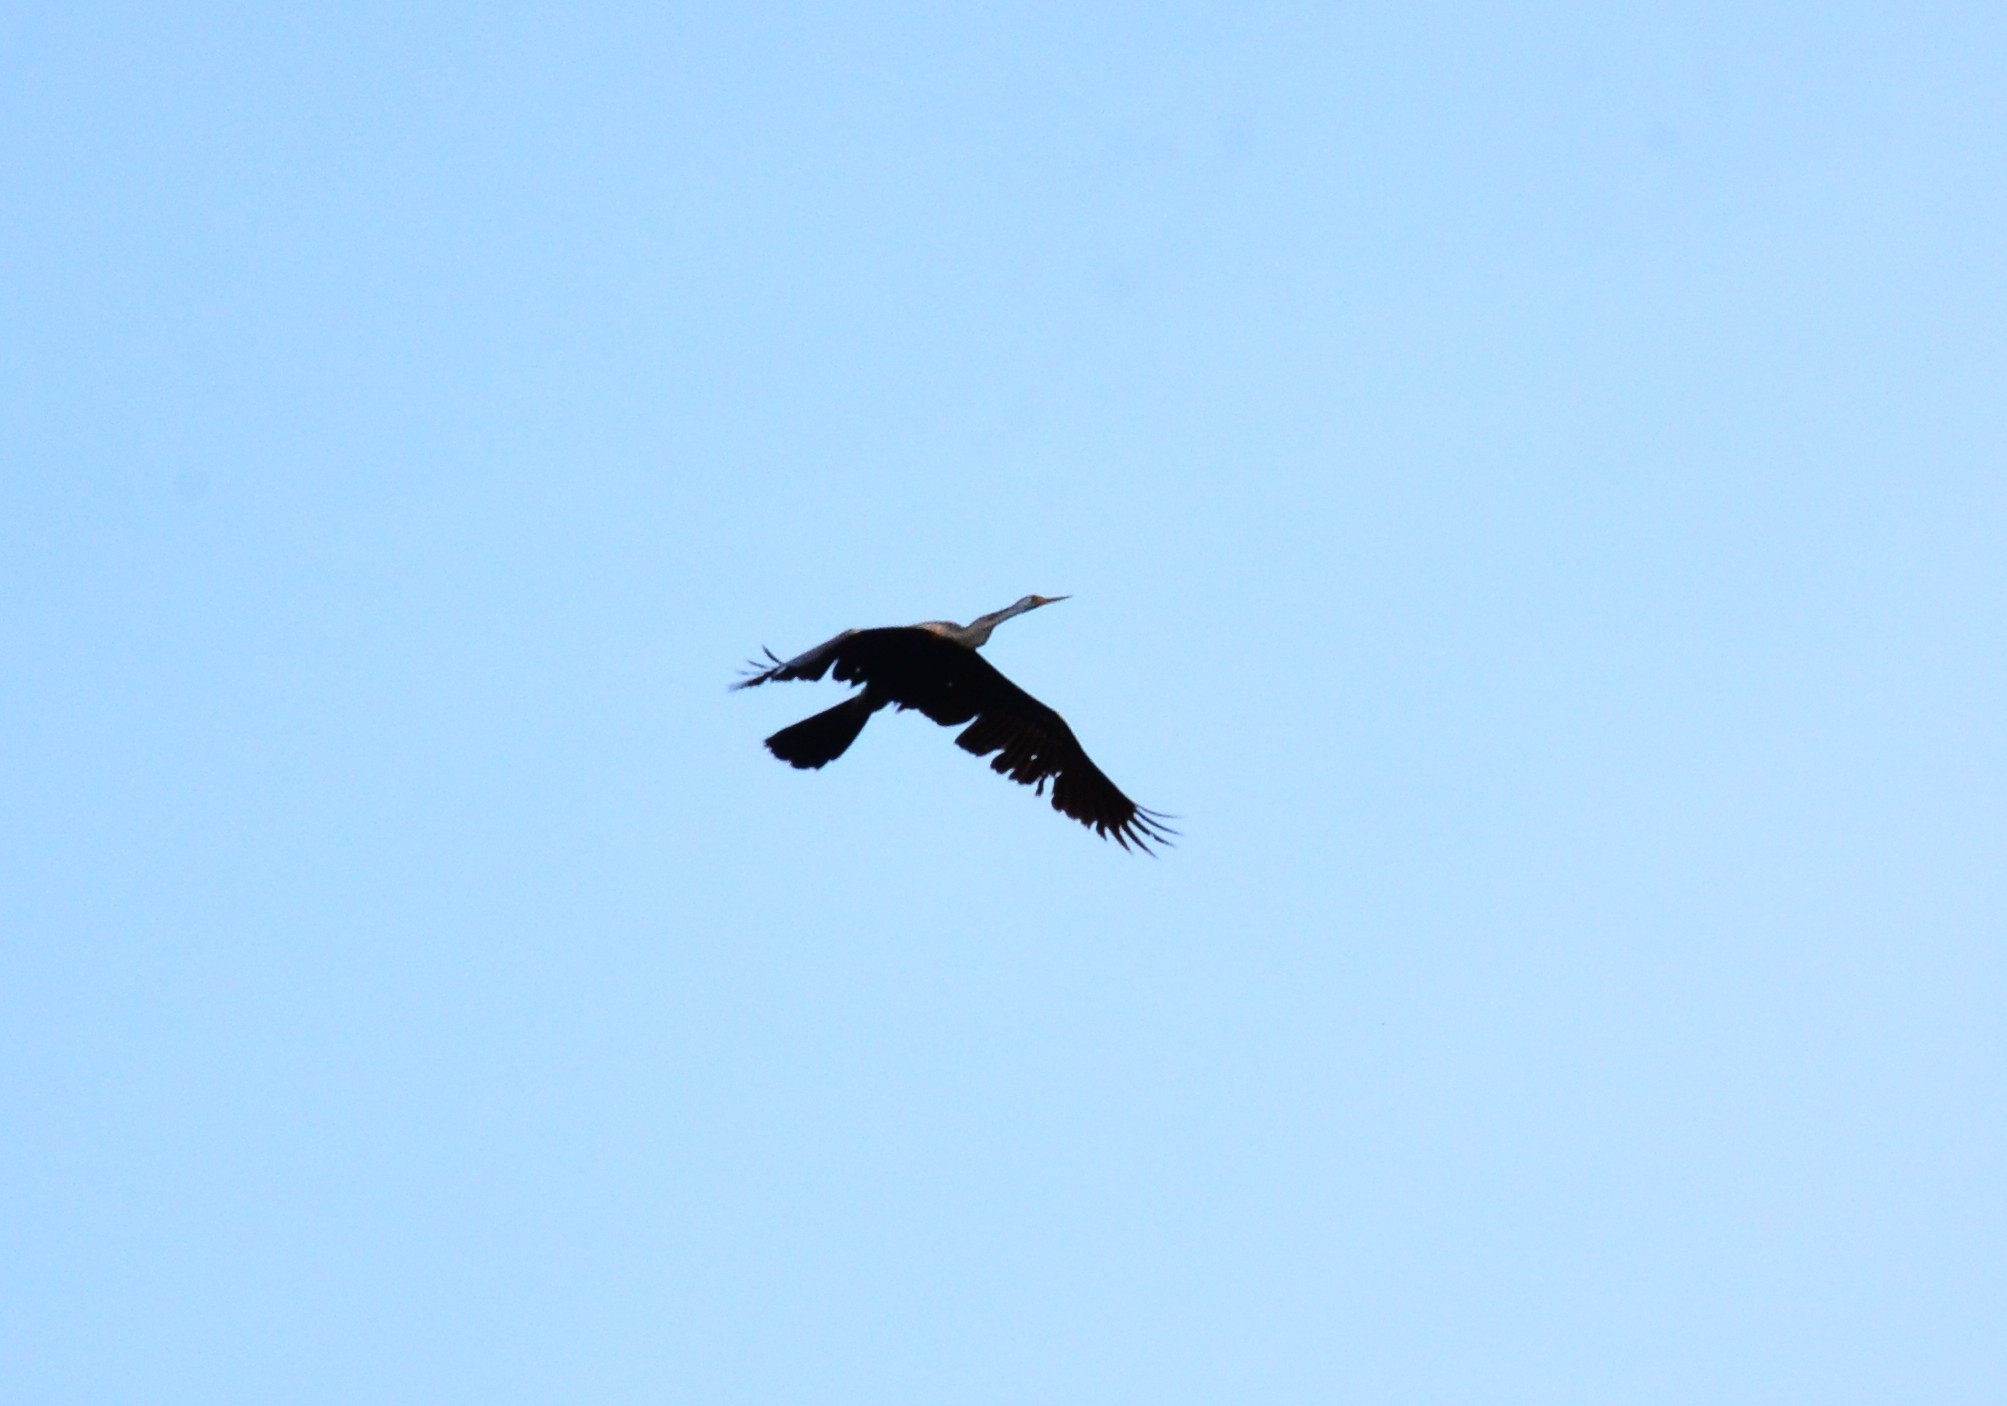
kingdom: Animalia
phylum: Chordata
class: Aves
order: Suliformes
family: Anhingidae
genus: Anhinga
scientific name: Anhinga melanogaster
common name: Oriental darter
